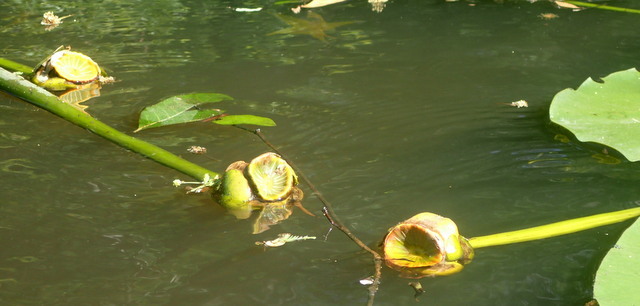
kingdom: Plantae
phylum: Tracheophyta
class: Magnoliopsida
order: Nymphaeales
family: Nymphaeaceae
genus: Nuphar
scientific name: Nuphar advena
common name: Spatter-dock
